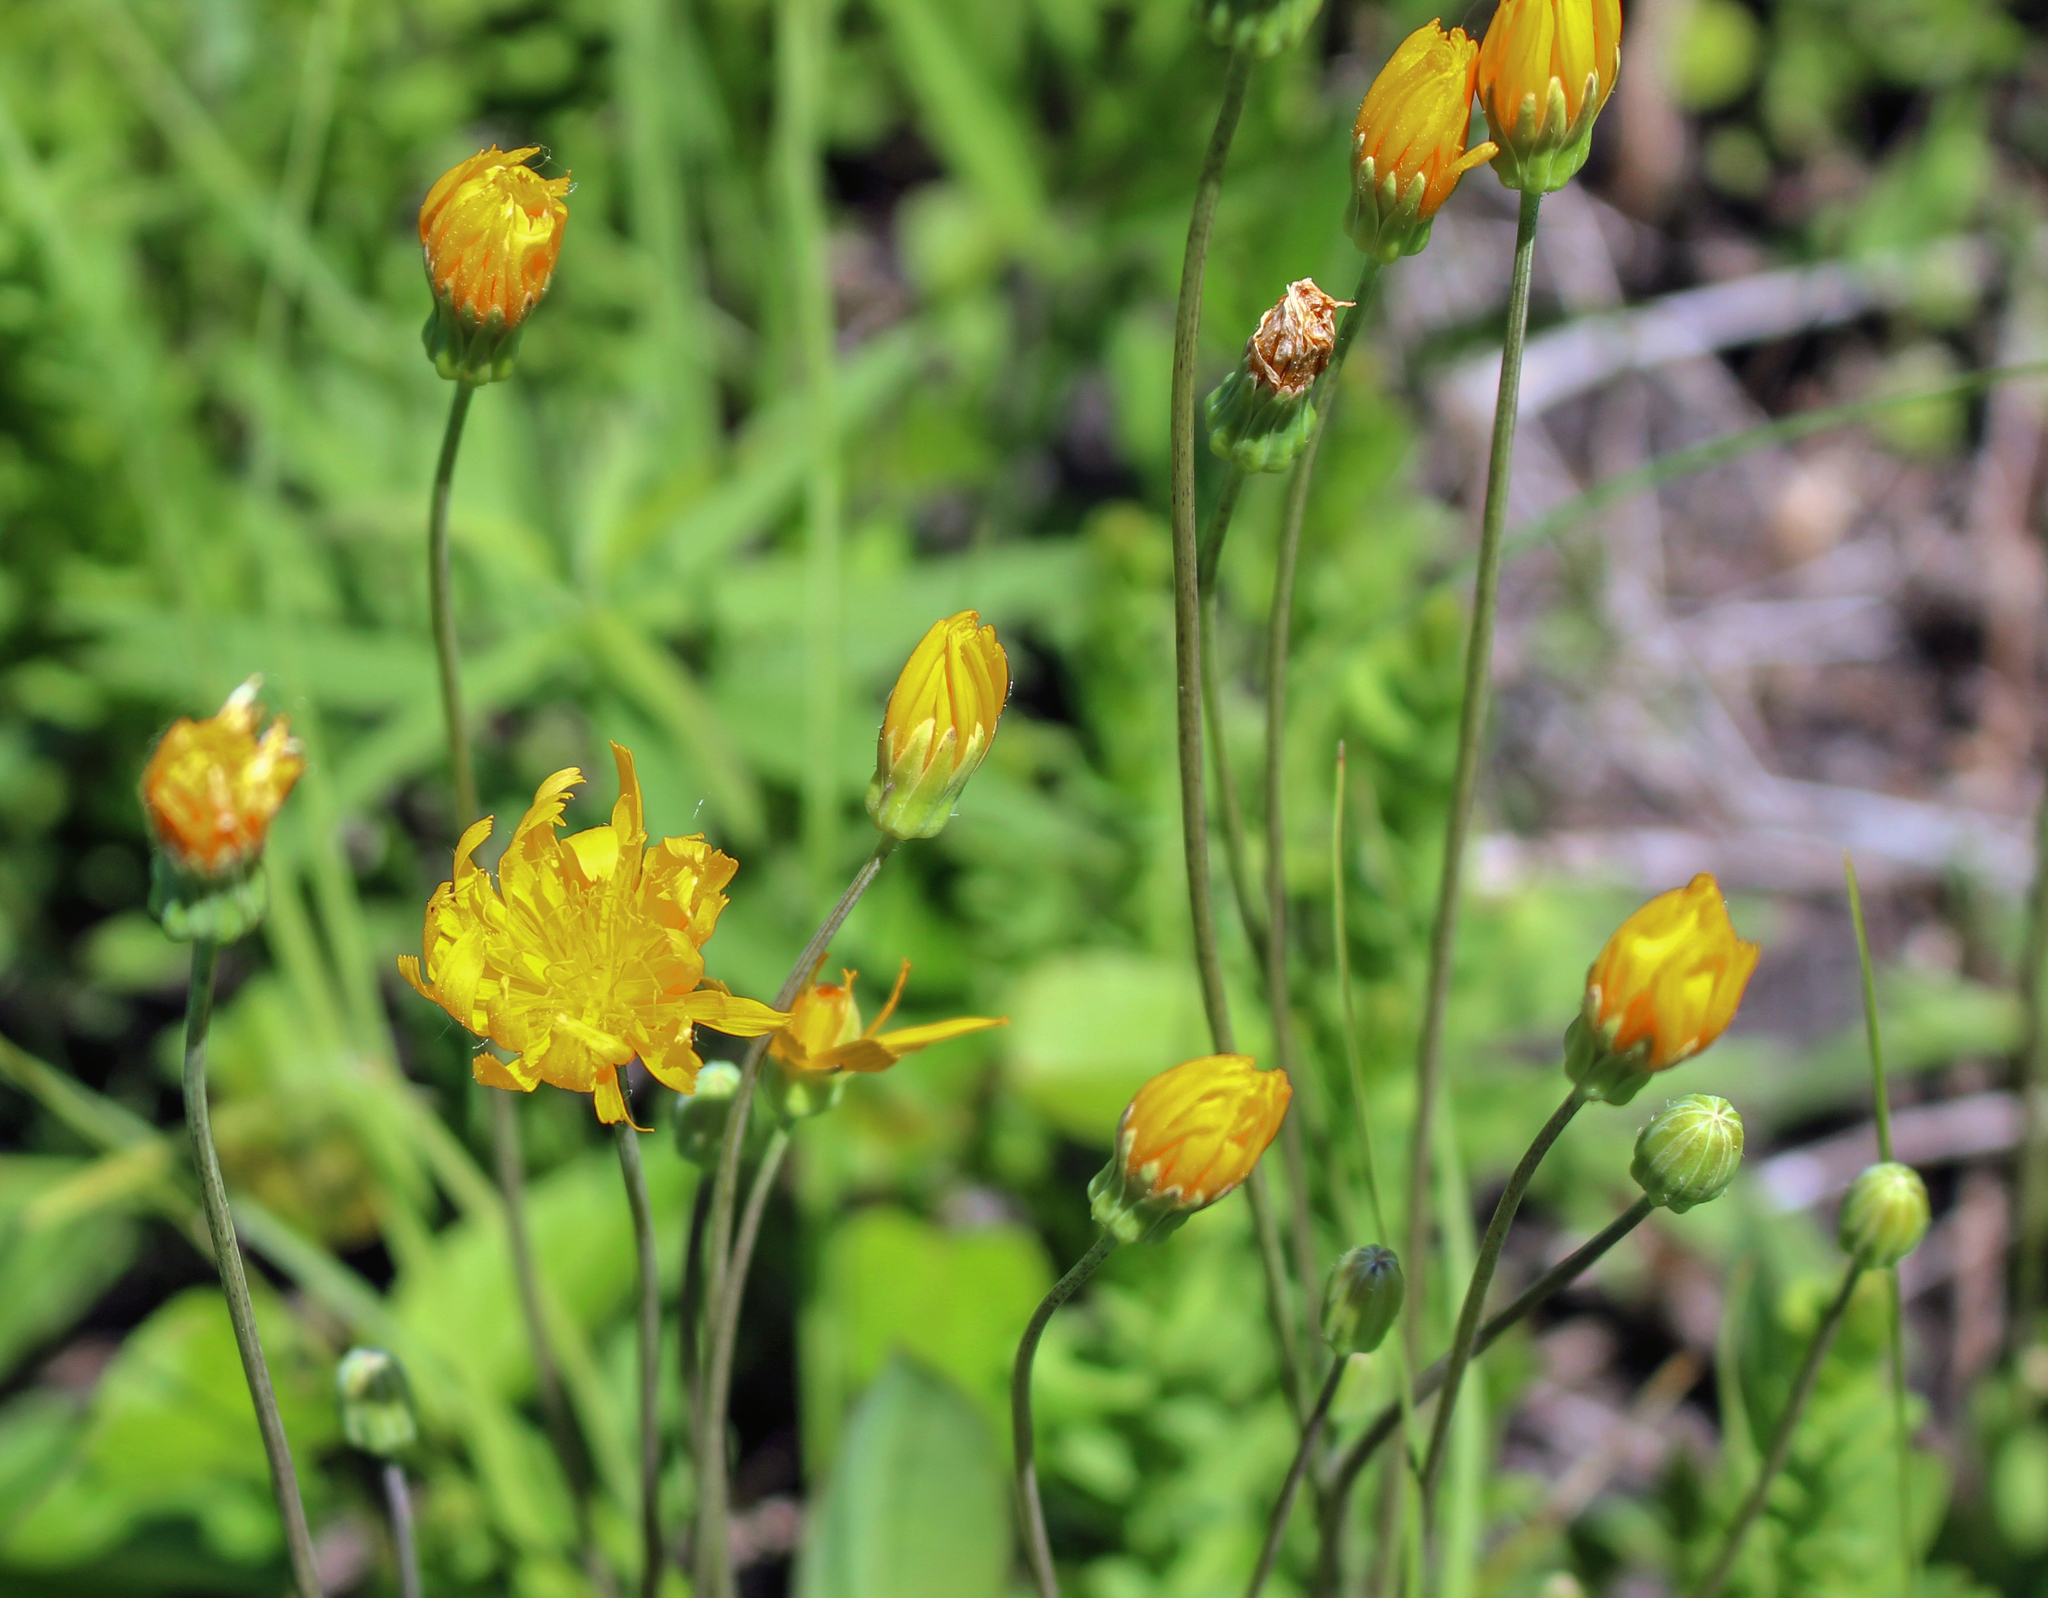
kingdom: Plantae
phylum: Tracheophyta
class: Magnoliopsida
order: Asterales
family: Asteraceae
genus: Krigia
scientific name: Krigia biflora
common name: Orange dwarf-dandelion
